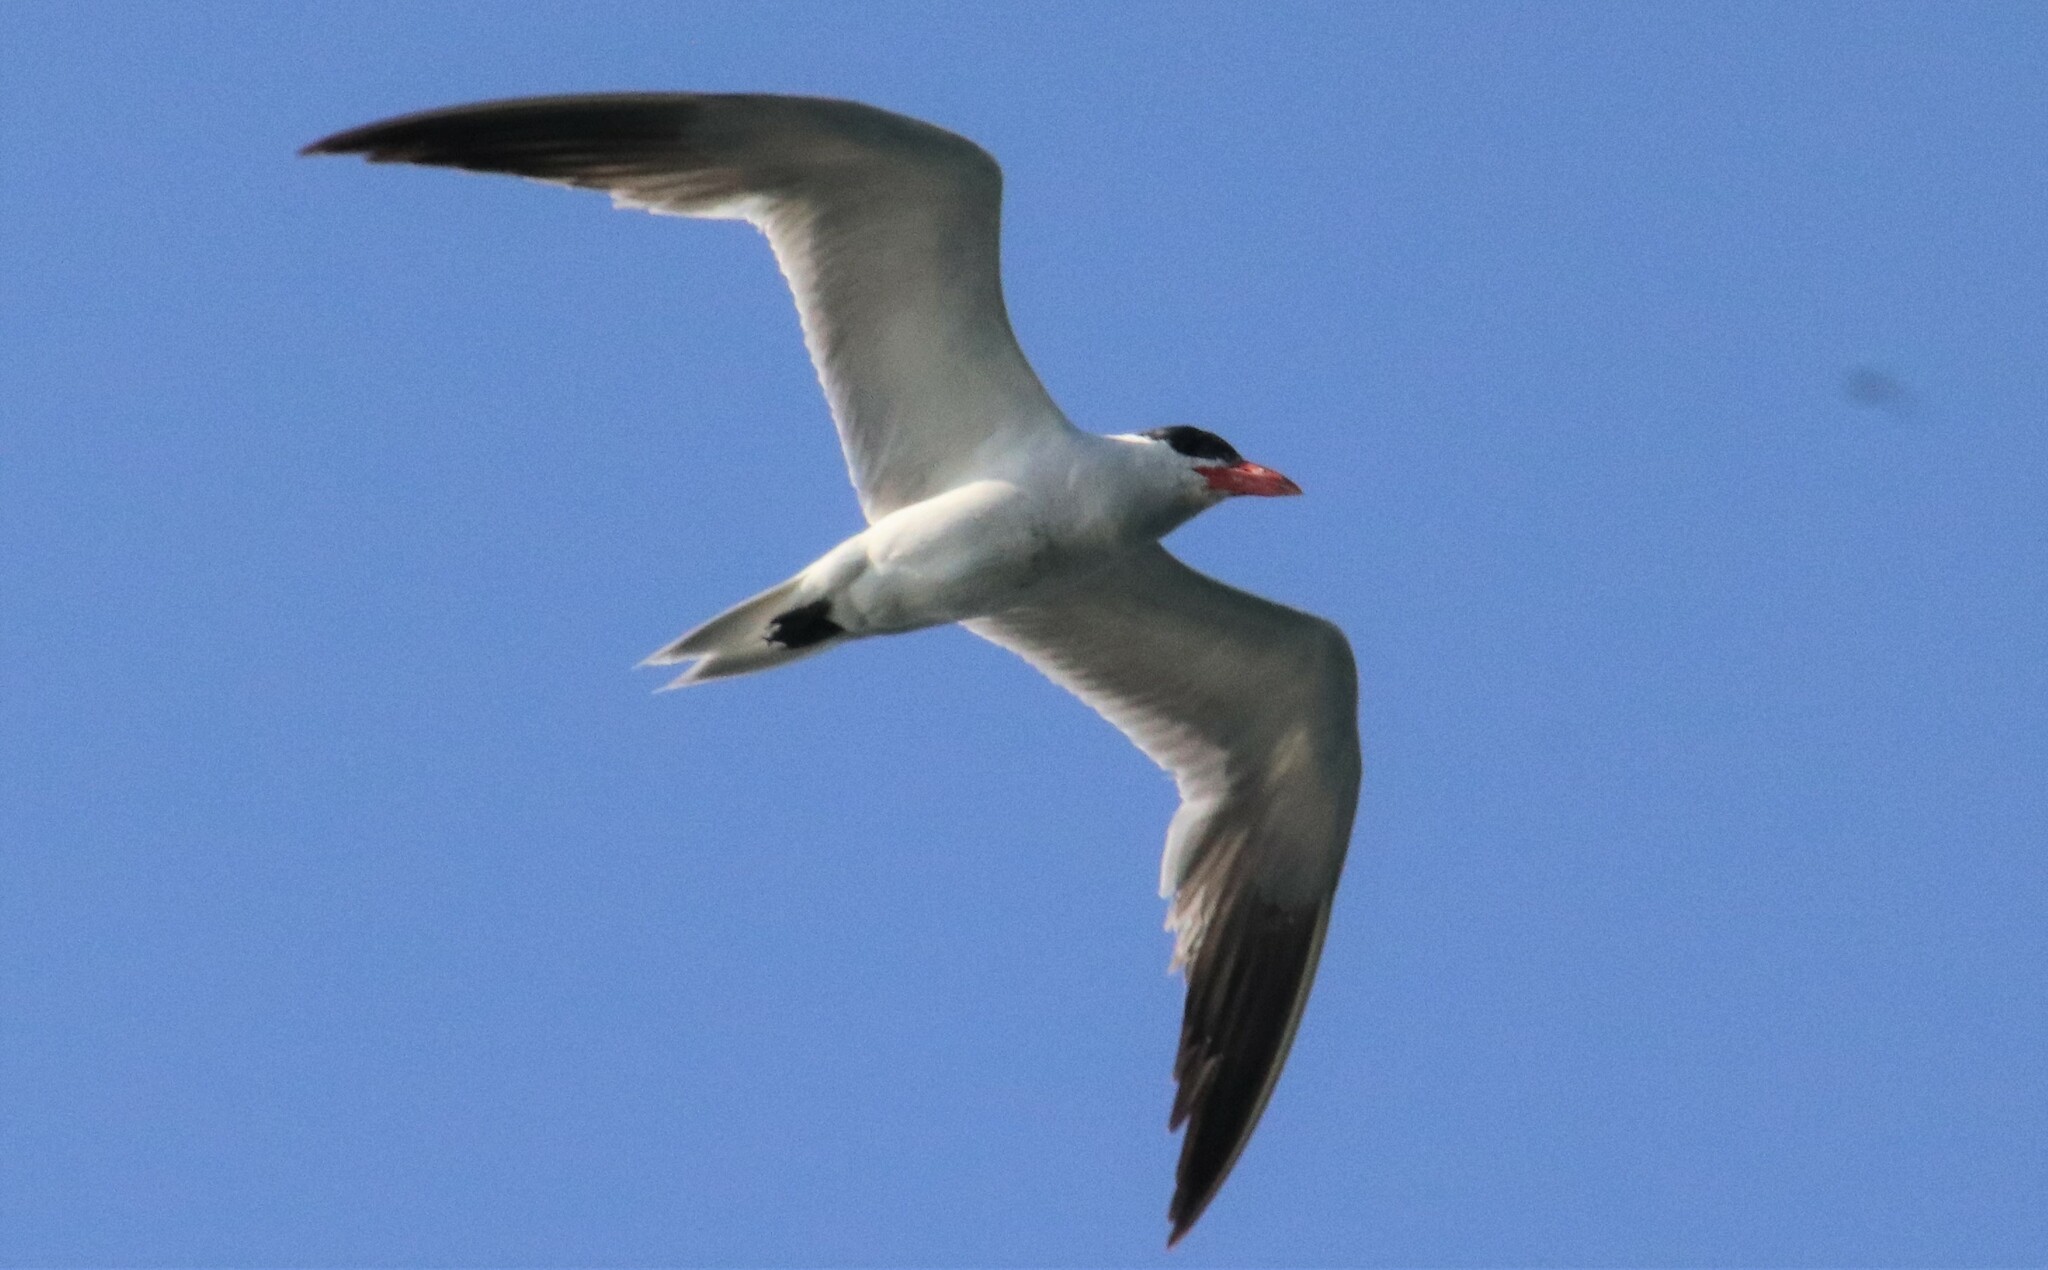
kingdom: Animalia
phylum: Chordata
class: Aves
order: Charadriiformes
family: Laridae
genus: Hydroprogne
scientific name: Hydroprogne caspia
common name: Caspian tern
